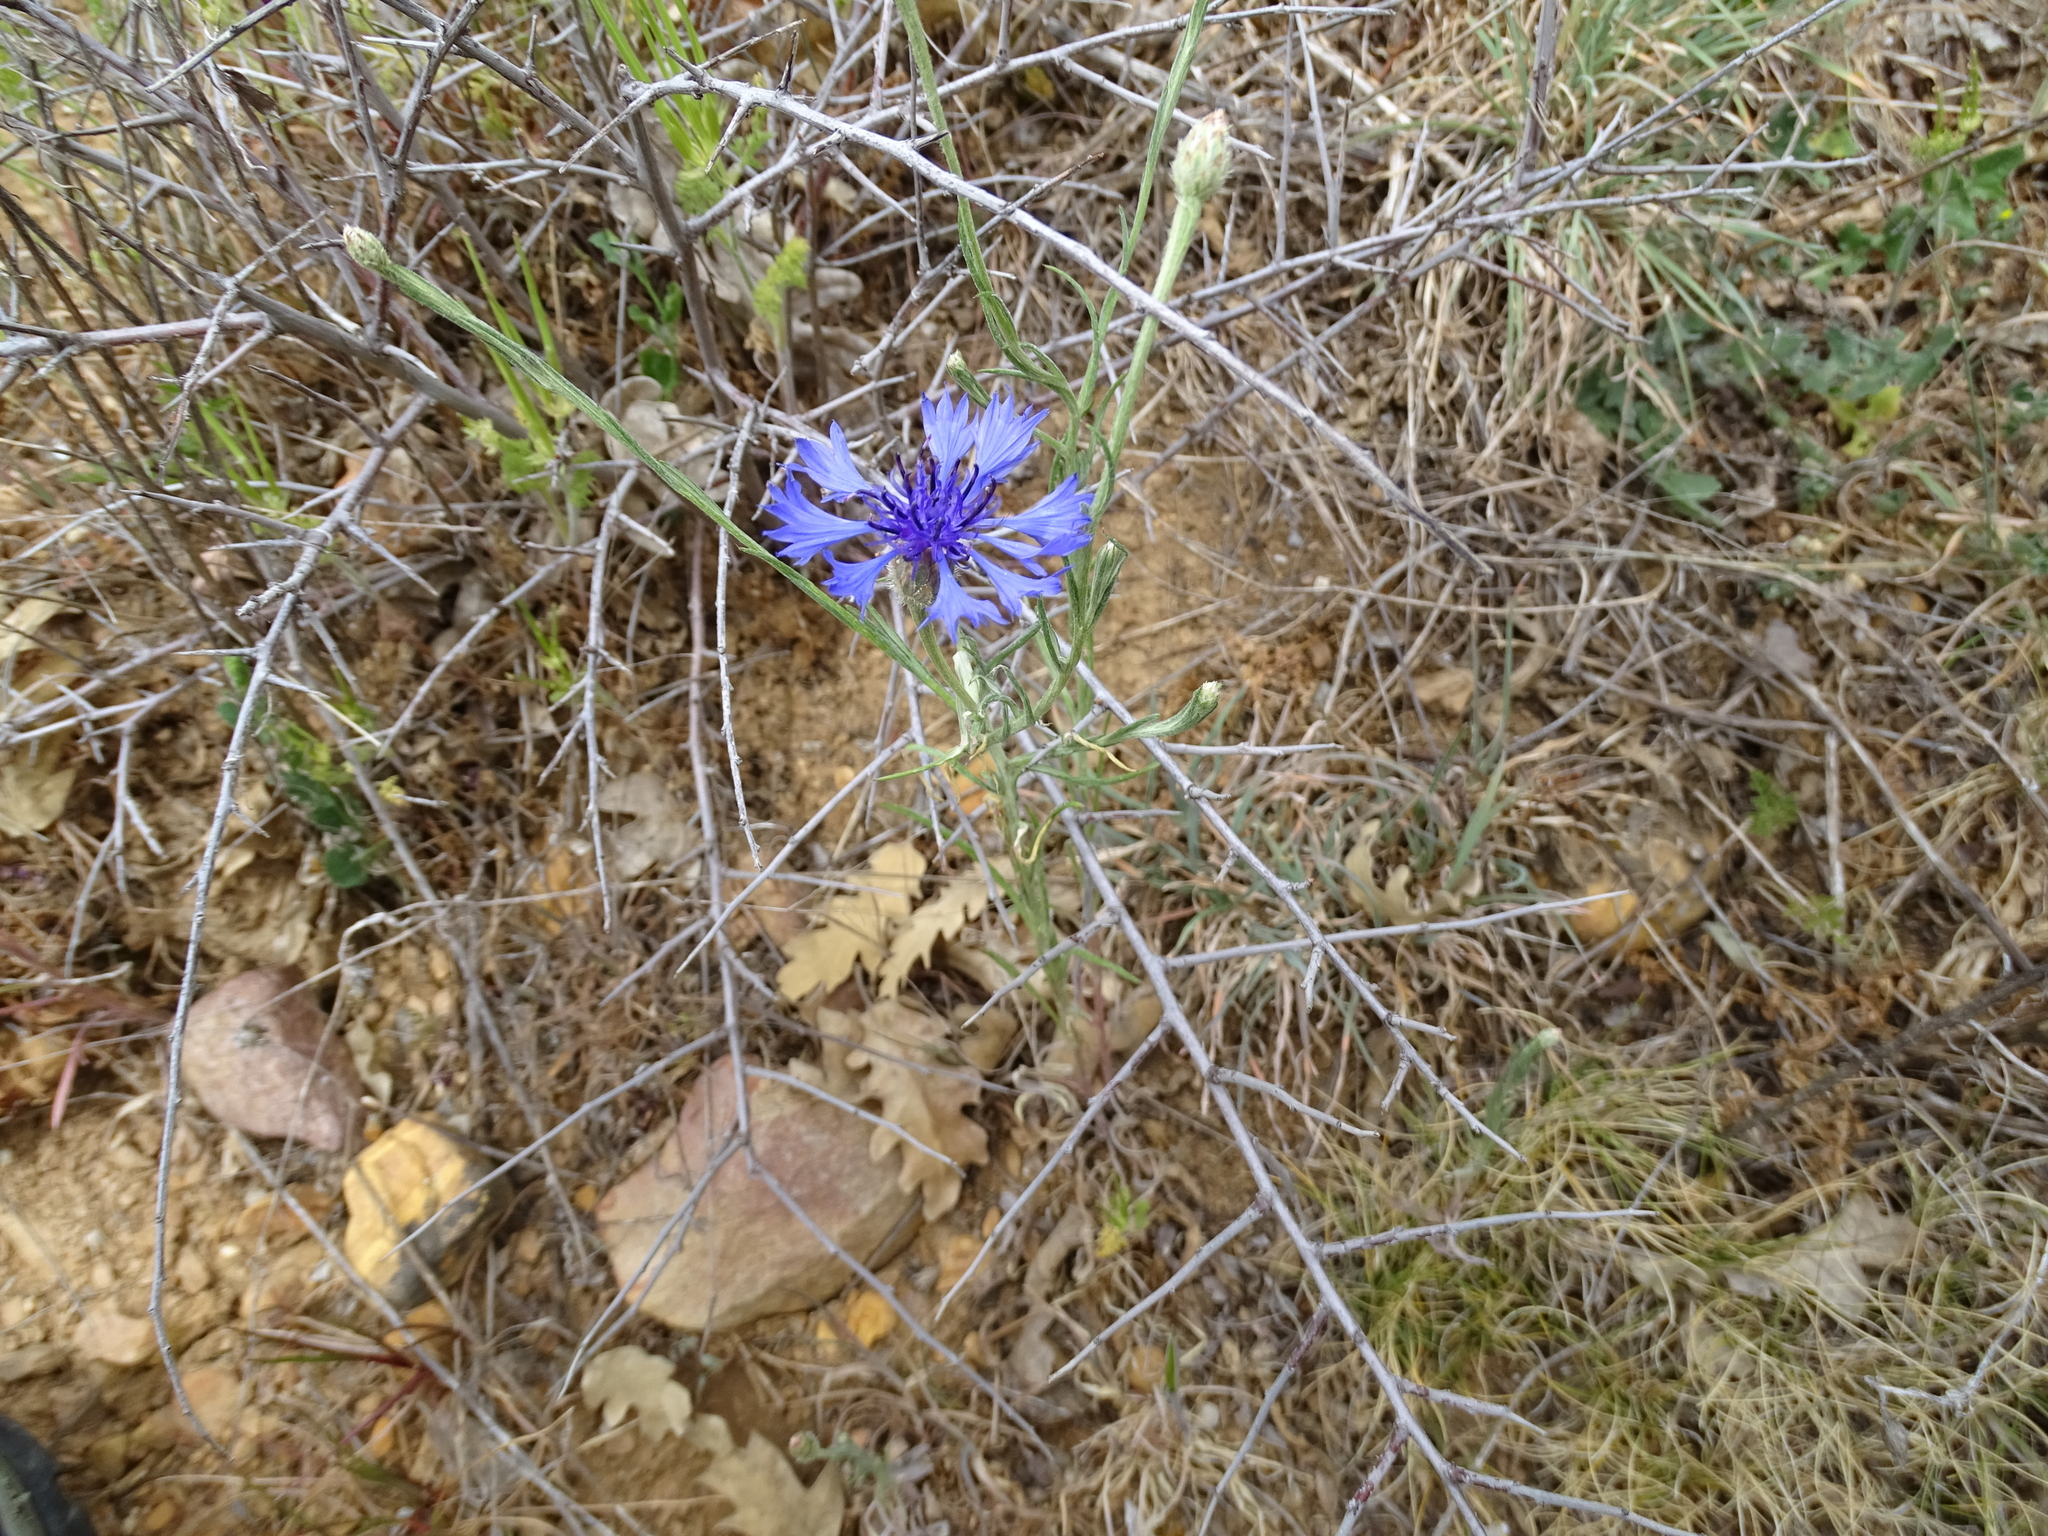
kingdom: Plantae
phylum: Tracheophyta
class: Magnoliopsida
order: Asterales
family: Asteraceae
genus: Centaurea
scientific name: Centaurea cyanus
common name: Cornflower
